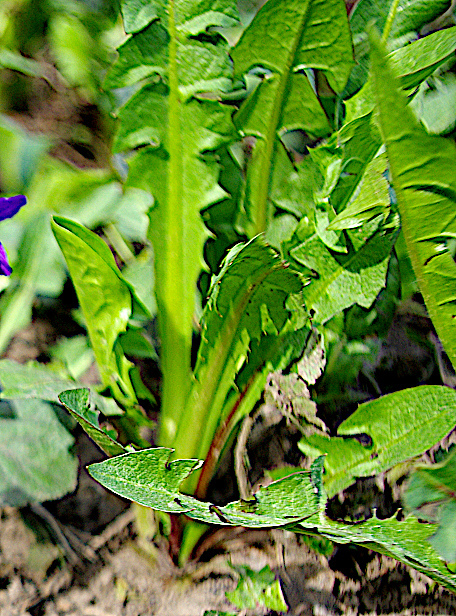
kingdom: Plantae
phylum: Tracheophyta
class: Magnoliopsida
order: Asterales
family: Asteraceae
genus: Taraxacum
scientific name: Taraxacum officinale
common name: Common dandelion
